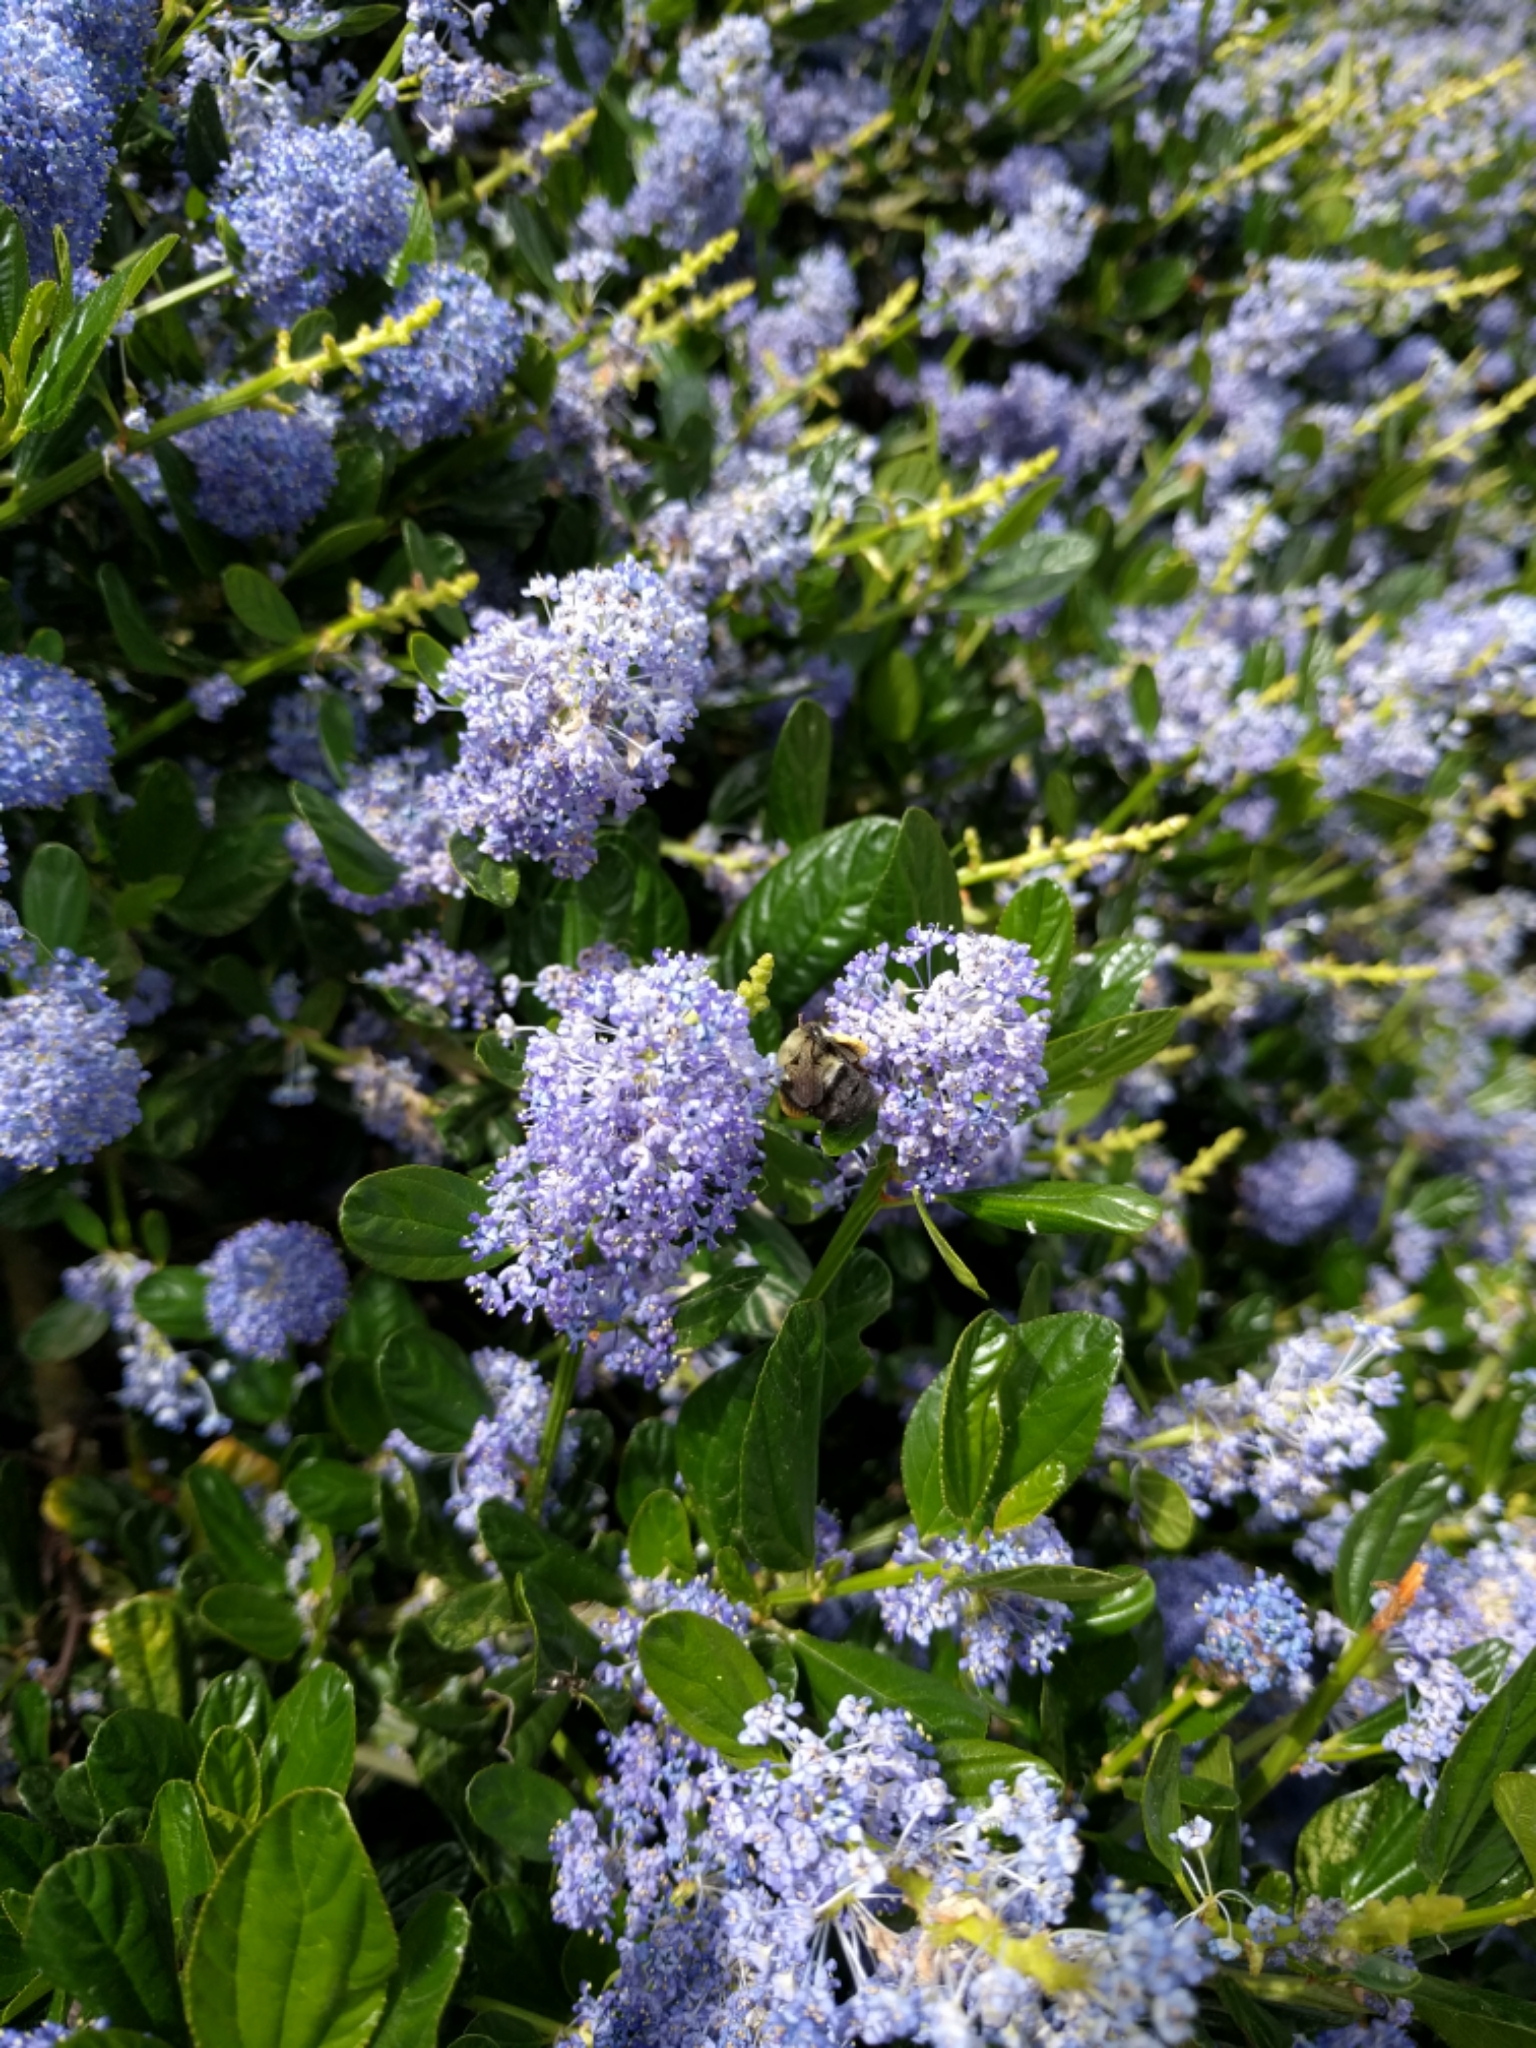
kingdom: Animalia
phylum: Arthropoda
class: Insecta
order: Hymenoptera
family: Apidae
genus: Bombus
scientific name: Bombus impatiens
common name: Common eastern bumble bee
